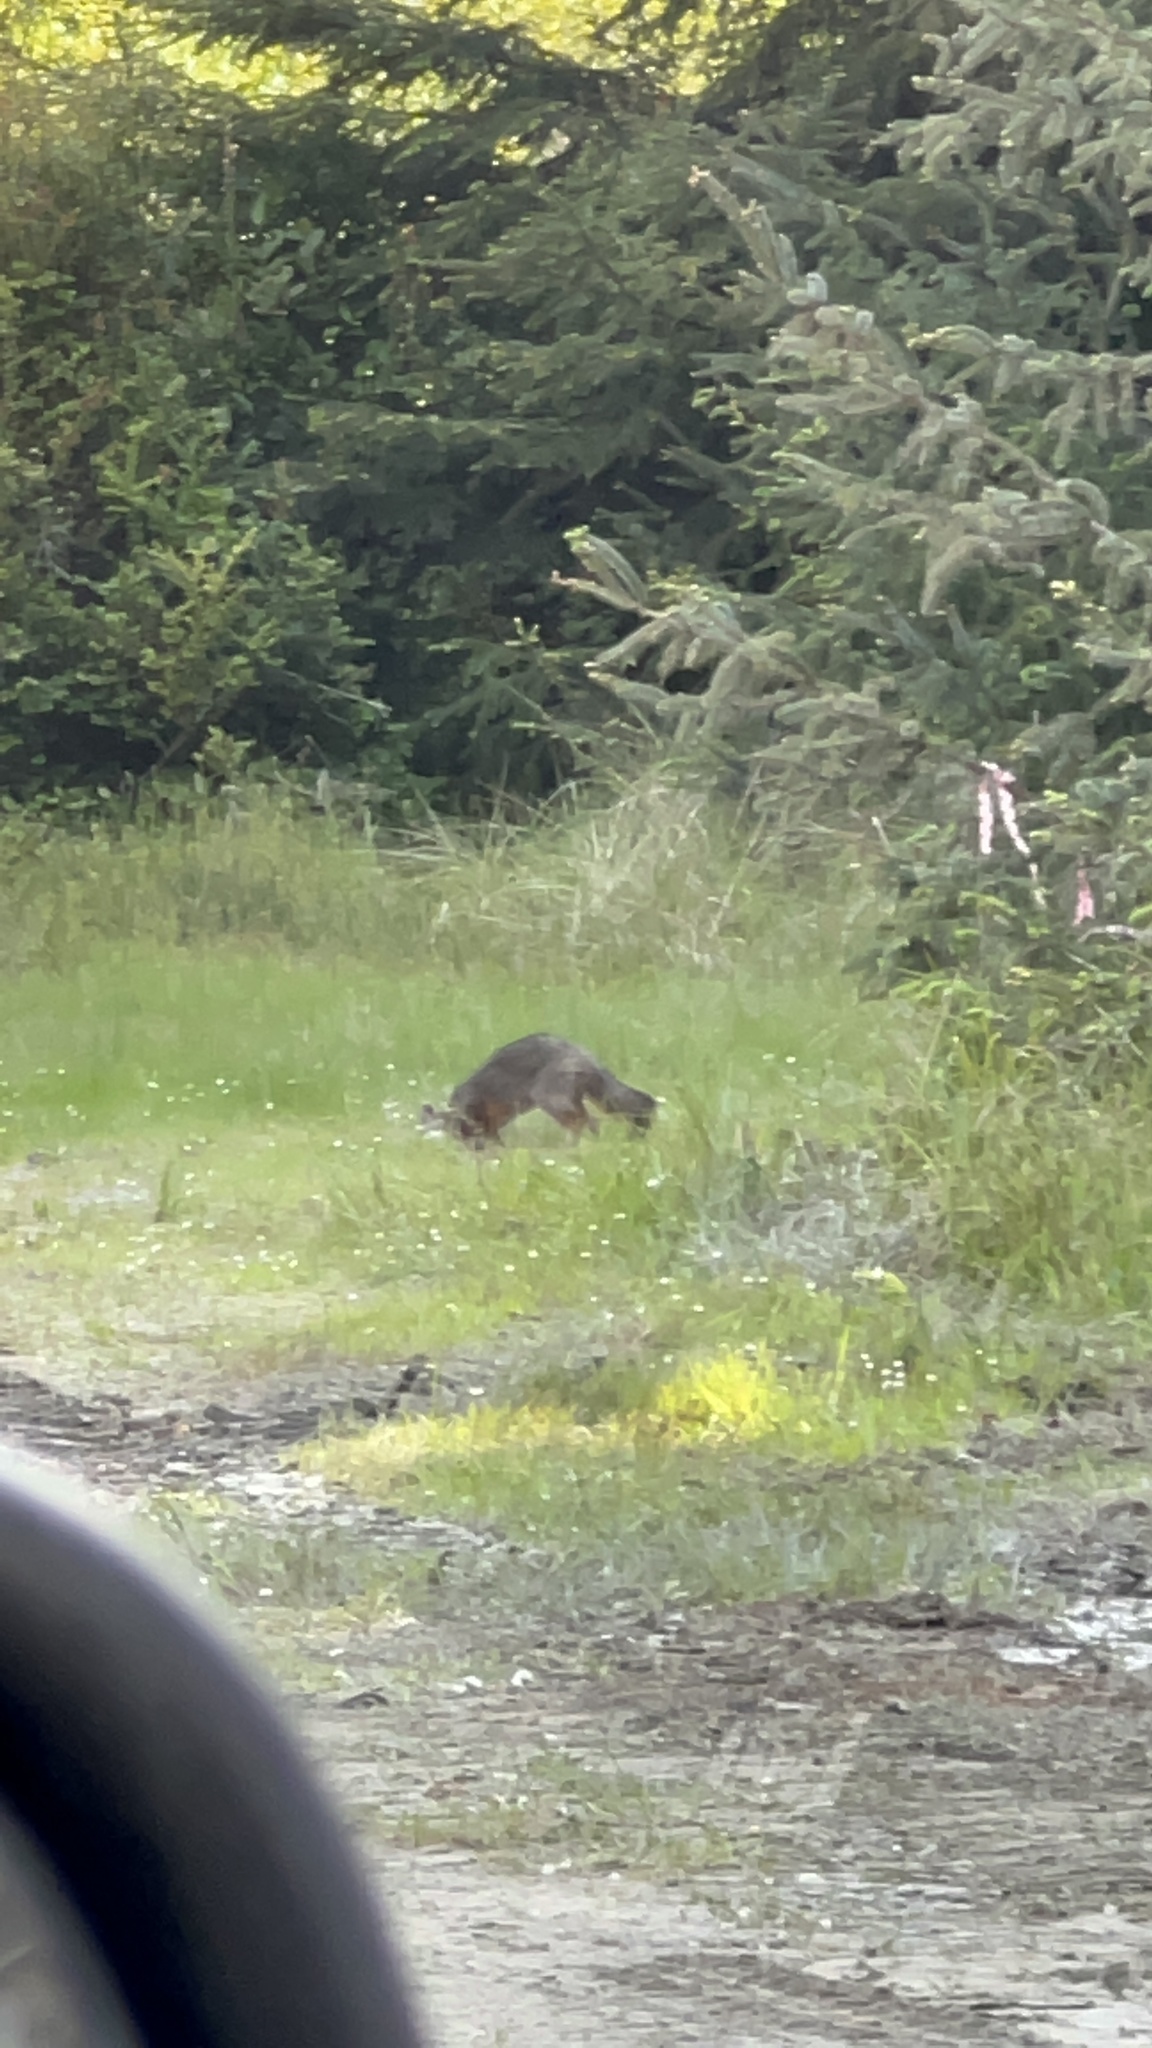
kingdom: Animalia
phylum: Chordata
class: Mammalia
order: Carnivora
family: Canidae
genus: Urocyon
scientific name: Urocyon cinereoargenteus
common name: Gray fox
